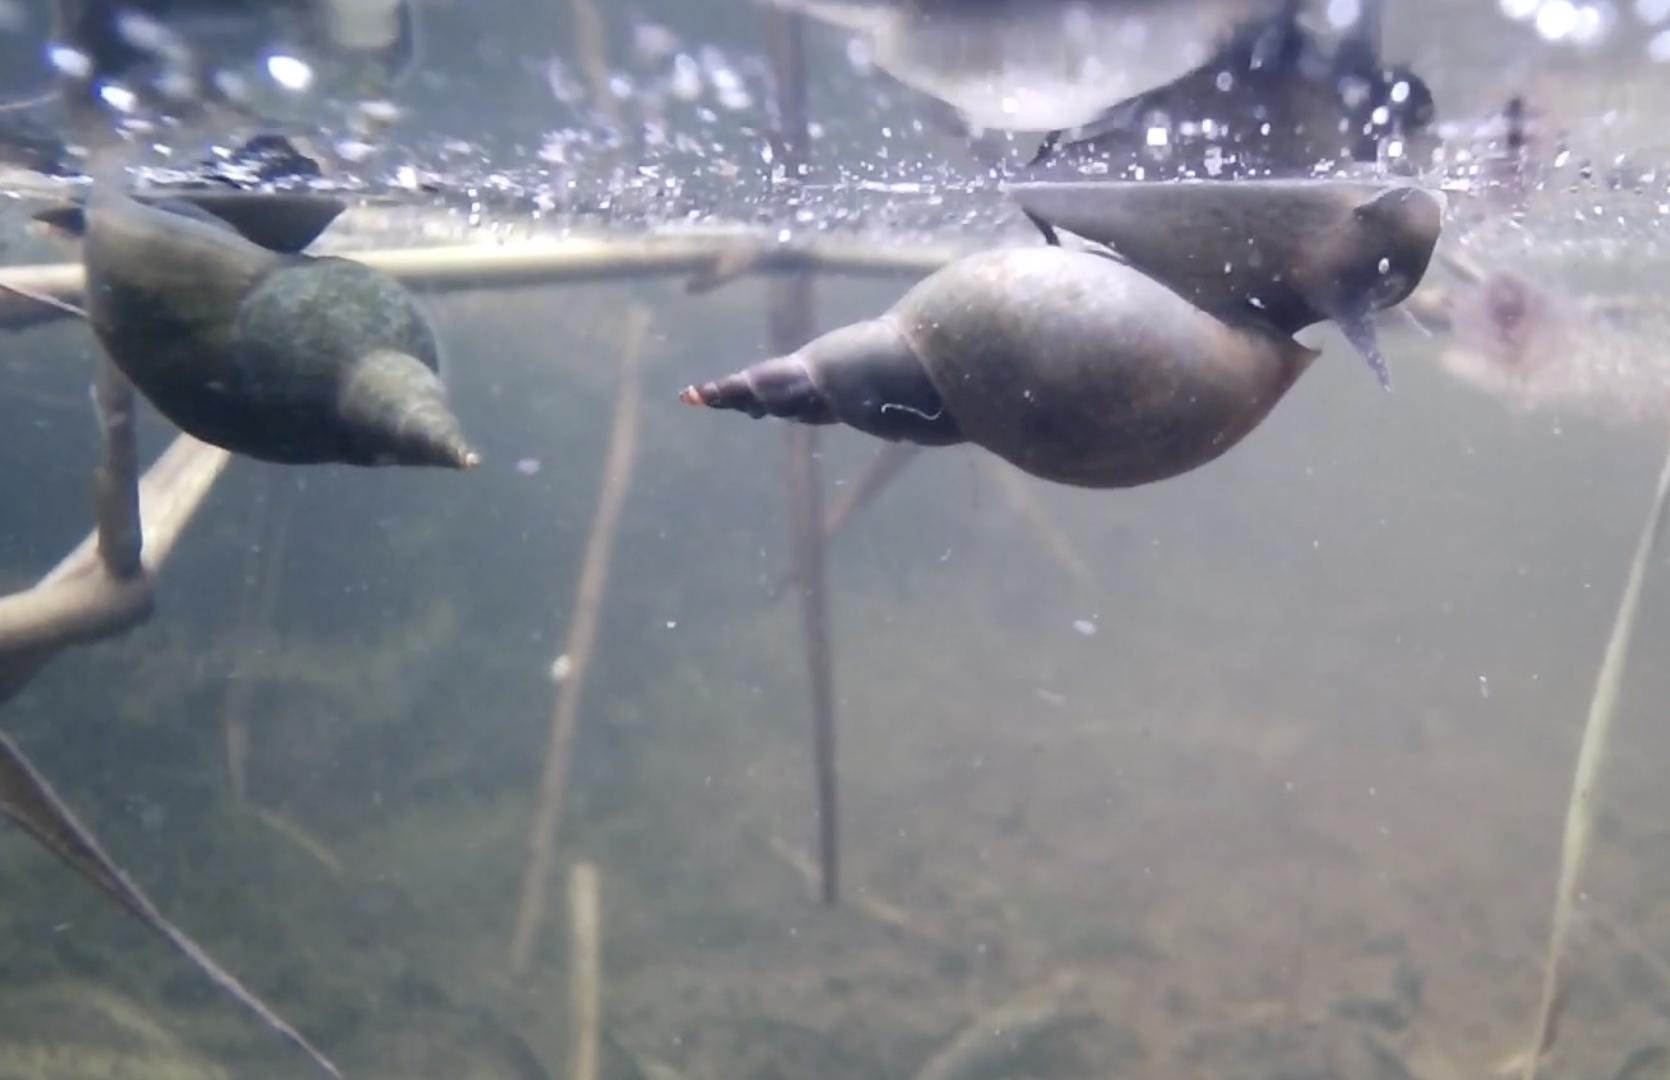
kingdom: Animalia
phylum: Mollusca
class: Gastropoda
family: Lymnaeidae
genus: Lymnaea
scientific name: Lymnaea stagnalis
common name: Great pond snail
